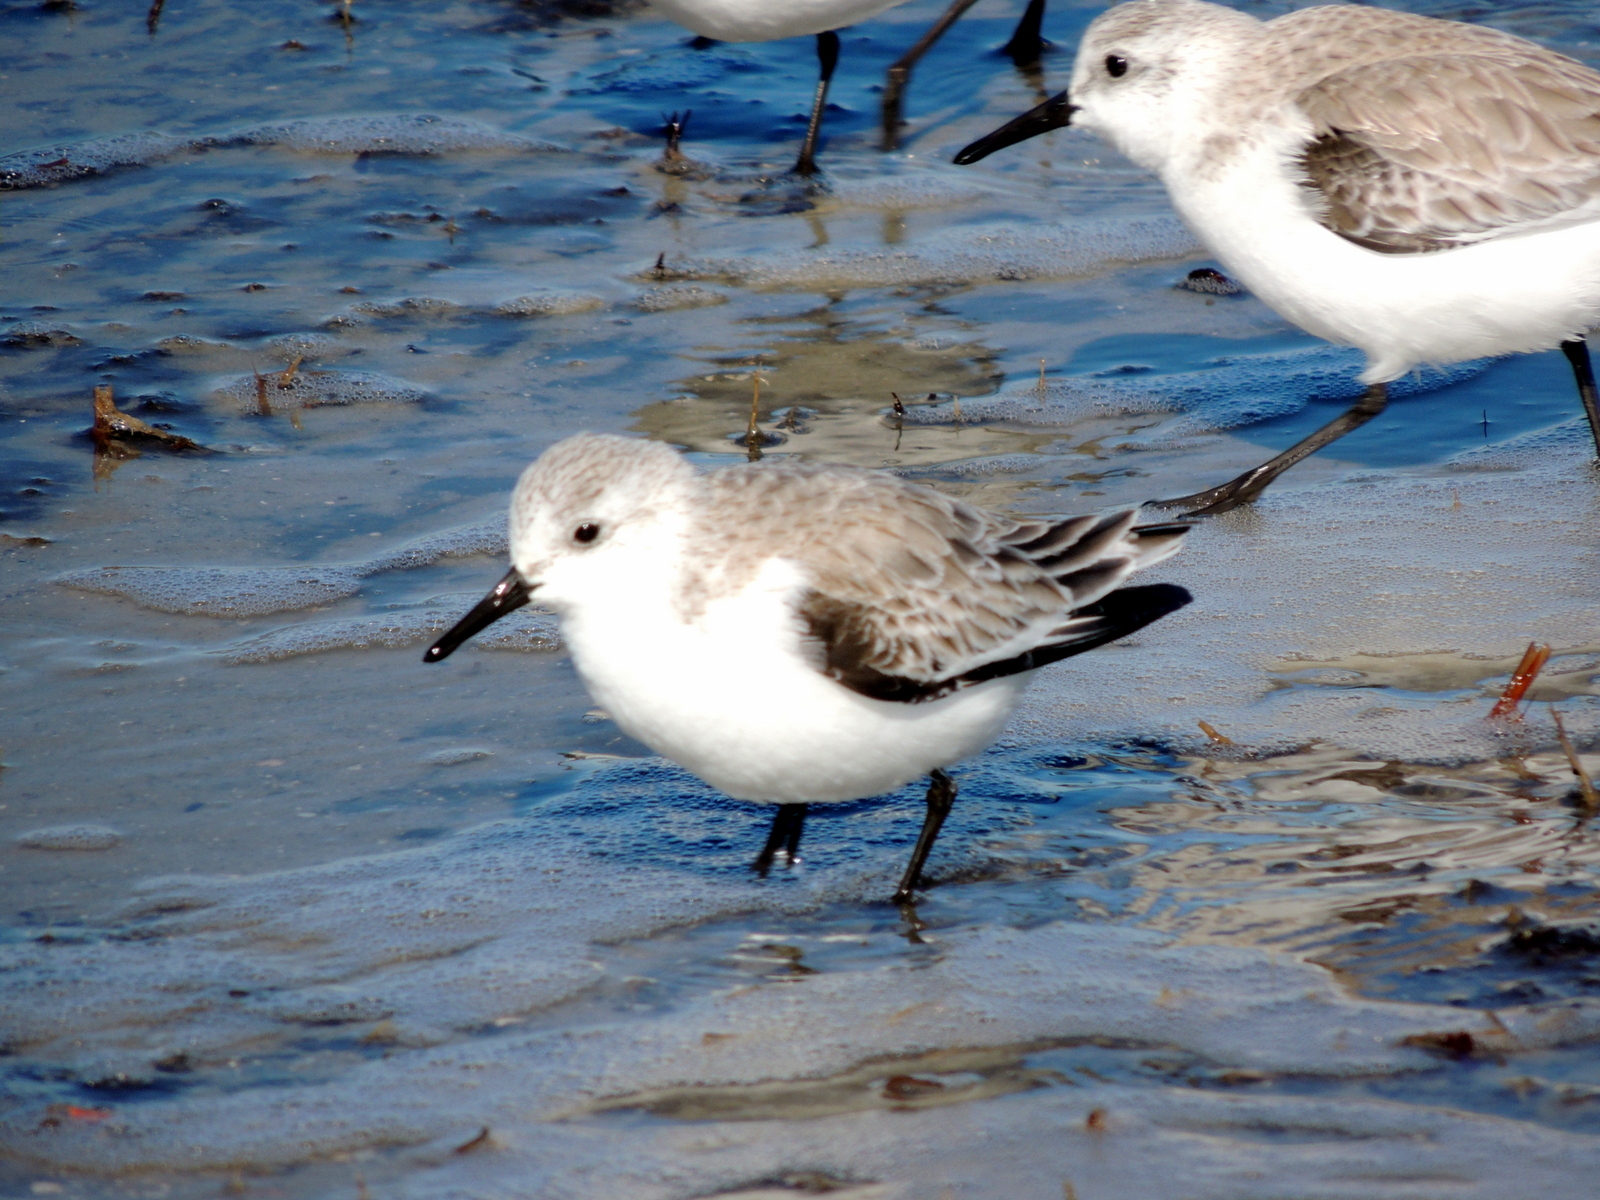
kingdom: Animalia
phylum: Chordata
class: Aves
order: Charadriiformes
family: Scolopacidae
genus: Calidris
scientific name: Calidris alba
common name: Sanderling
